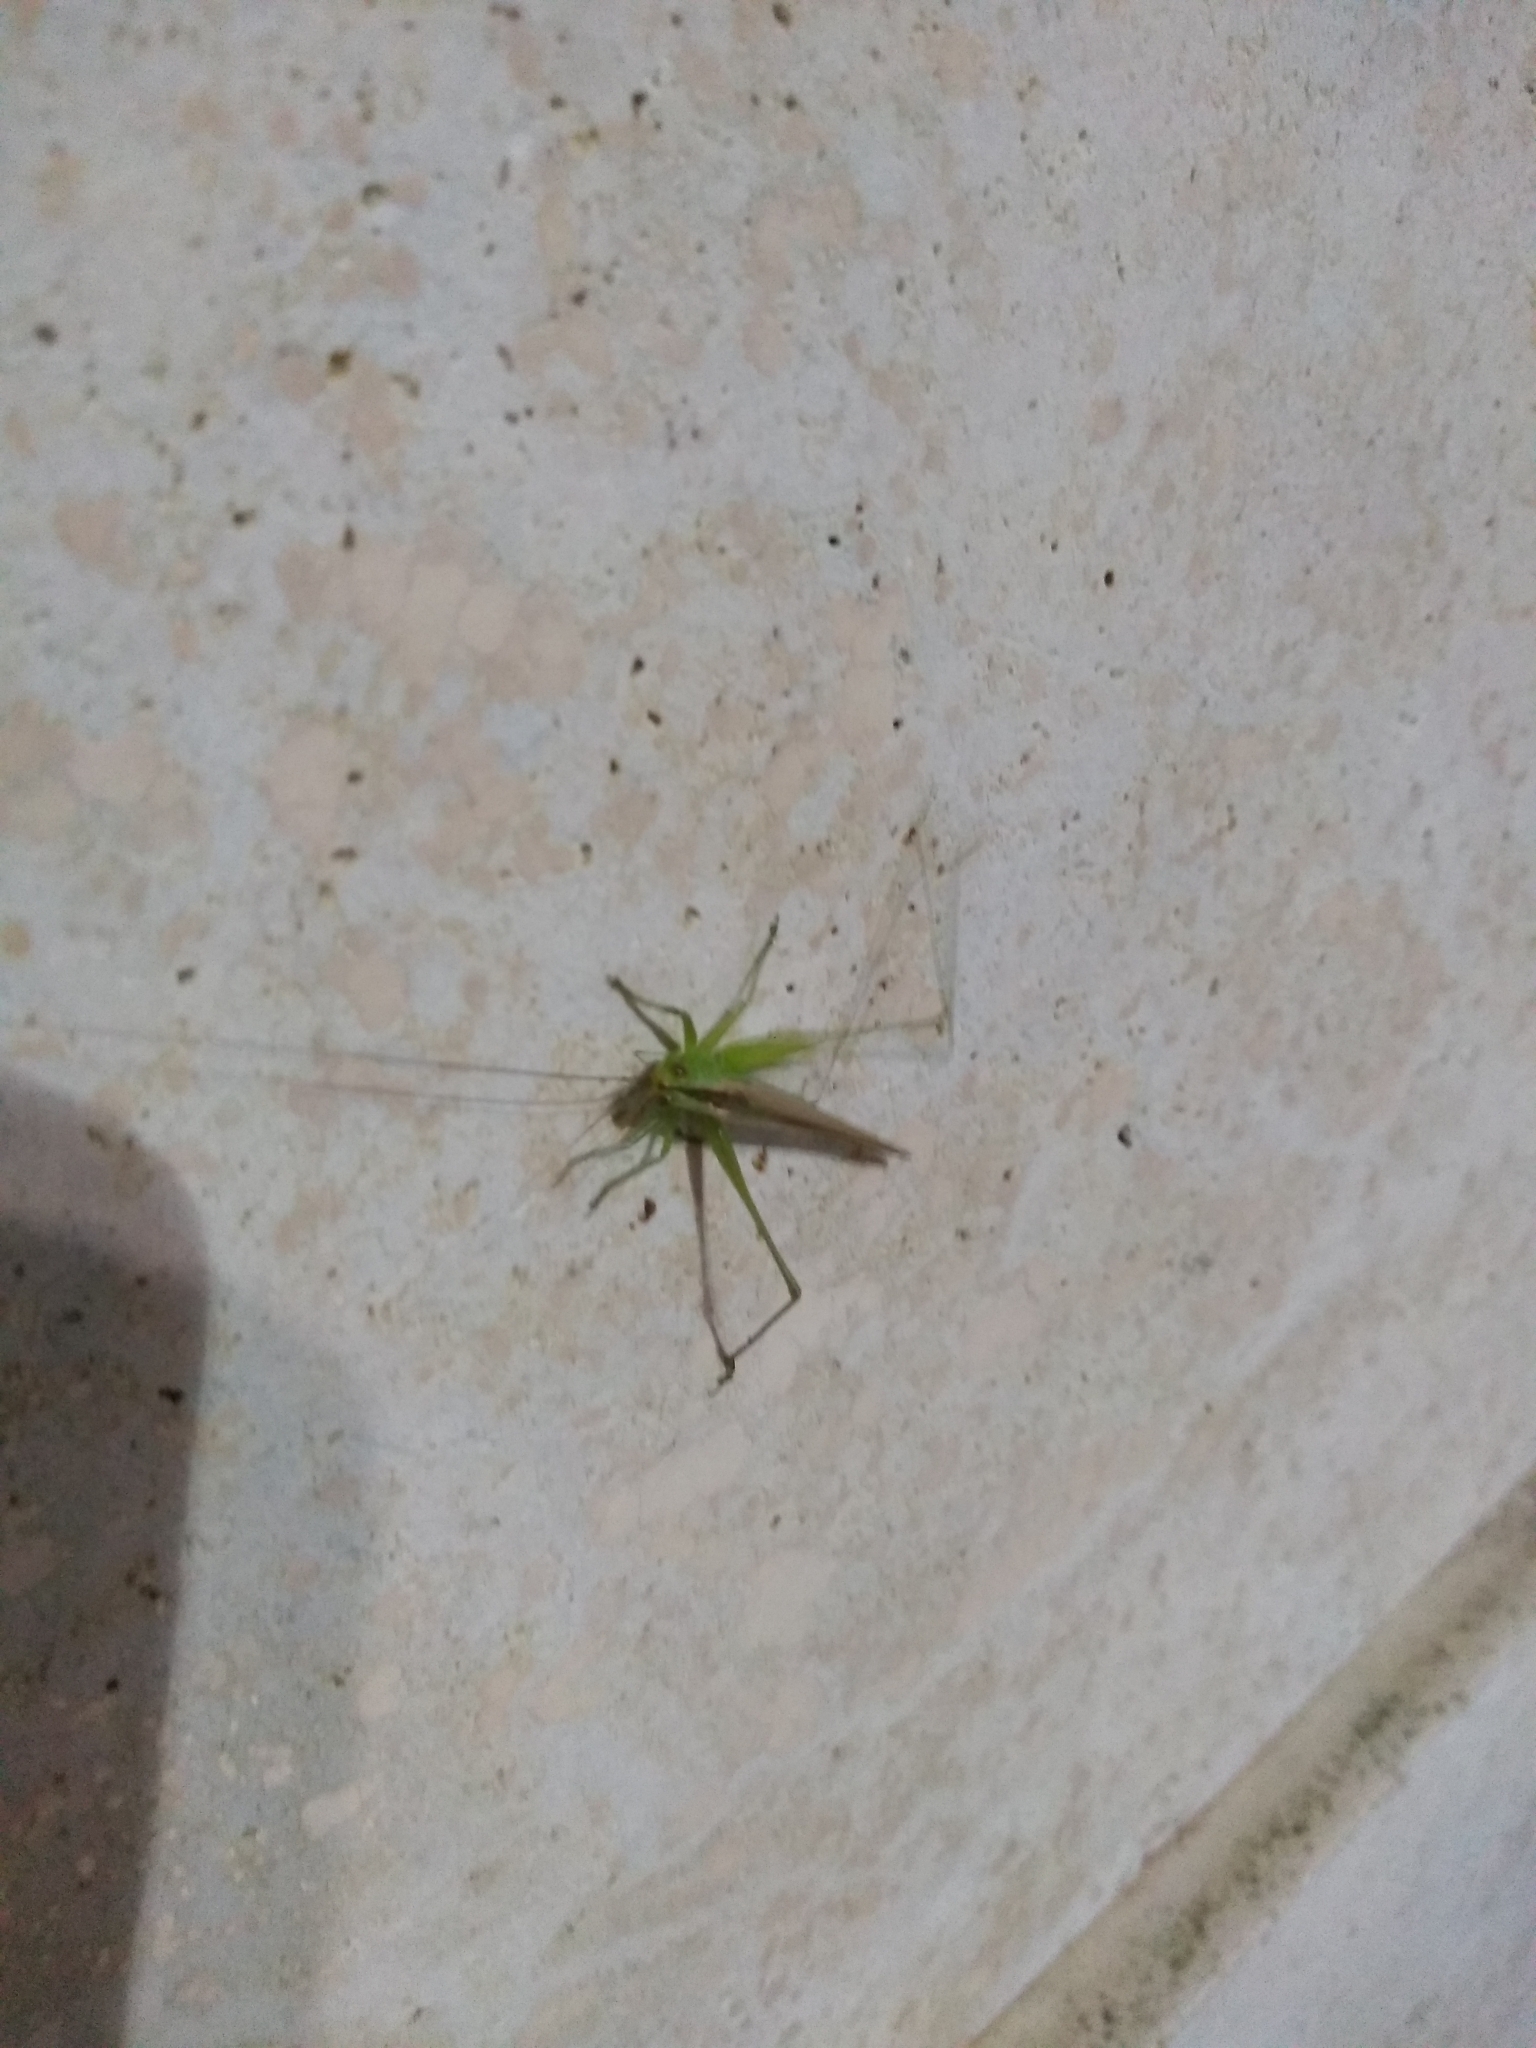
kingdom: Animalia
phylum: Arthropoda
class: Insecta
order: Orthoptera
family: Tettigoniidae
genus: Conocephalus
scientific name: Conocephalus longipes
